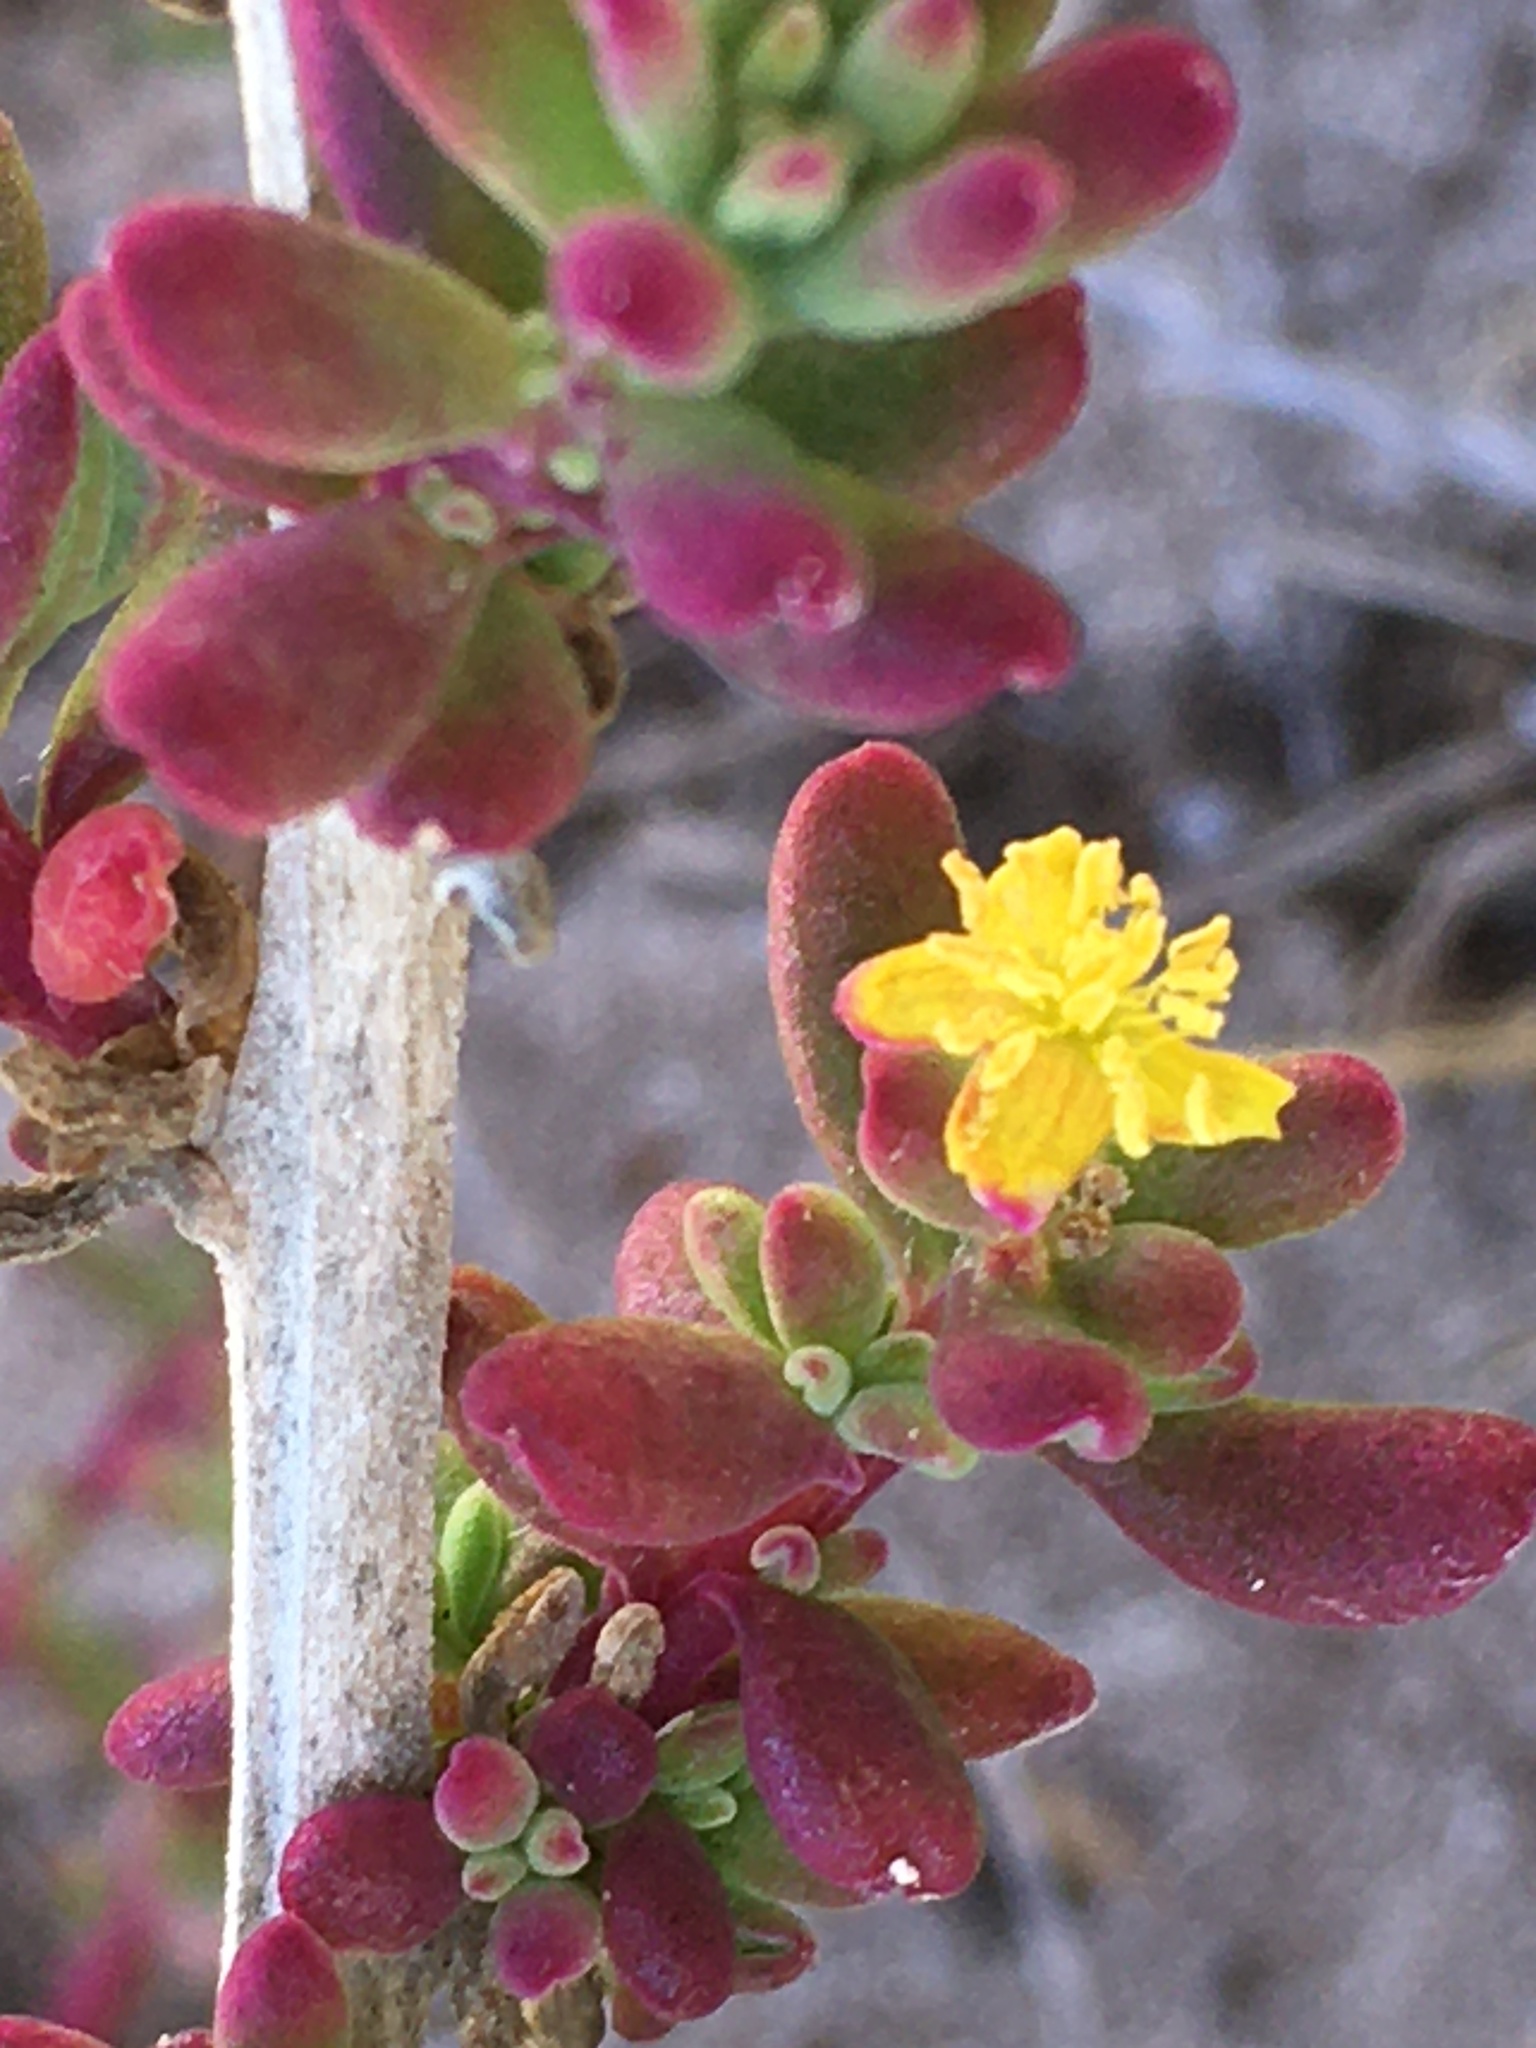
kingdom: Plantae
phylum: Tracheophyta
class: Magnoliopsida
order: Caryophyllales
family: Aizoaceae
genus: Tetragonia
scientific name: Tetragonia fruticosa
